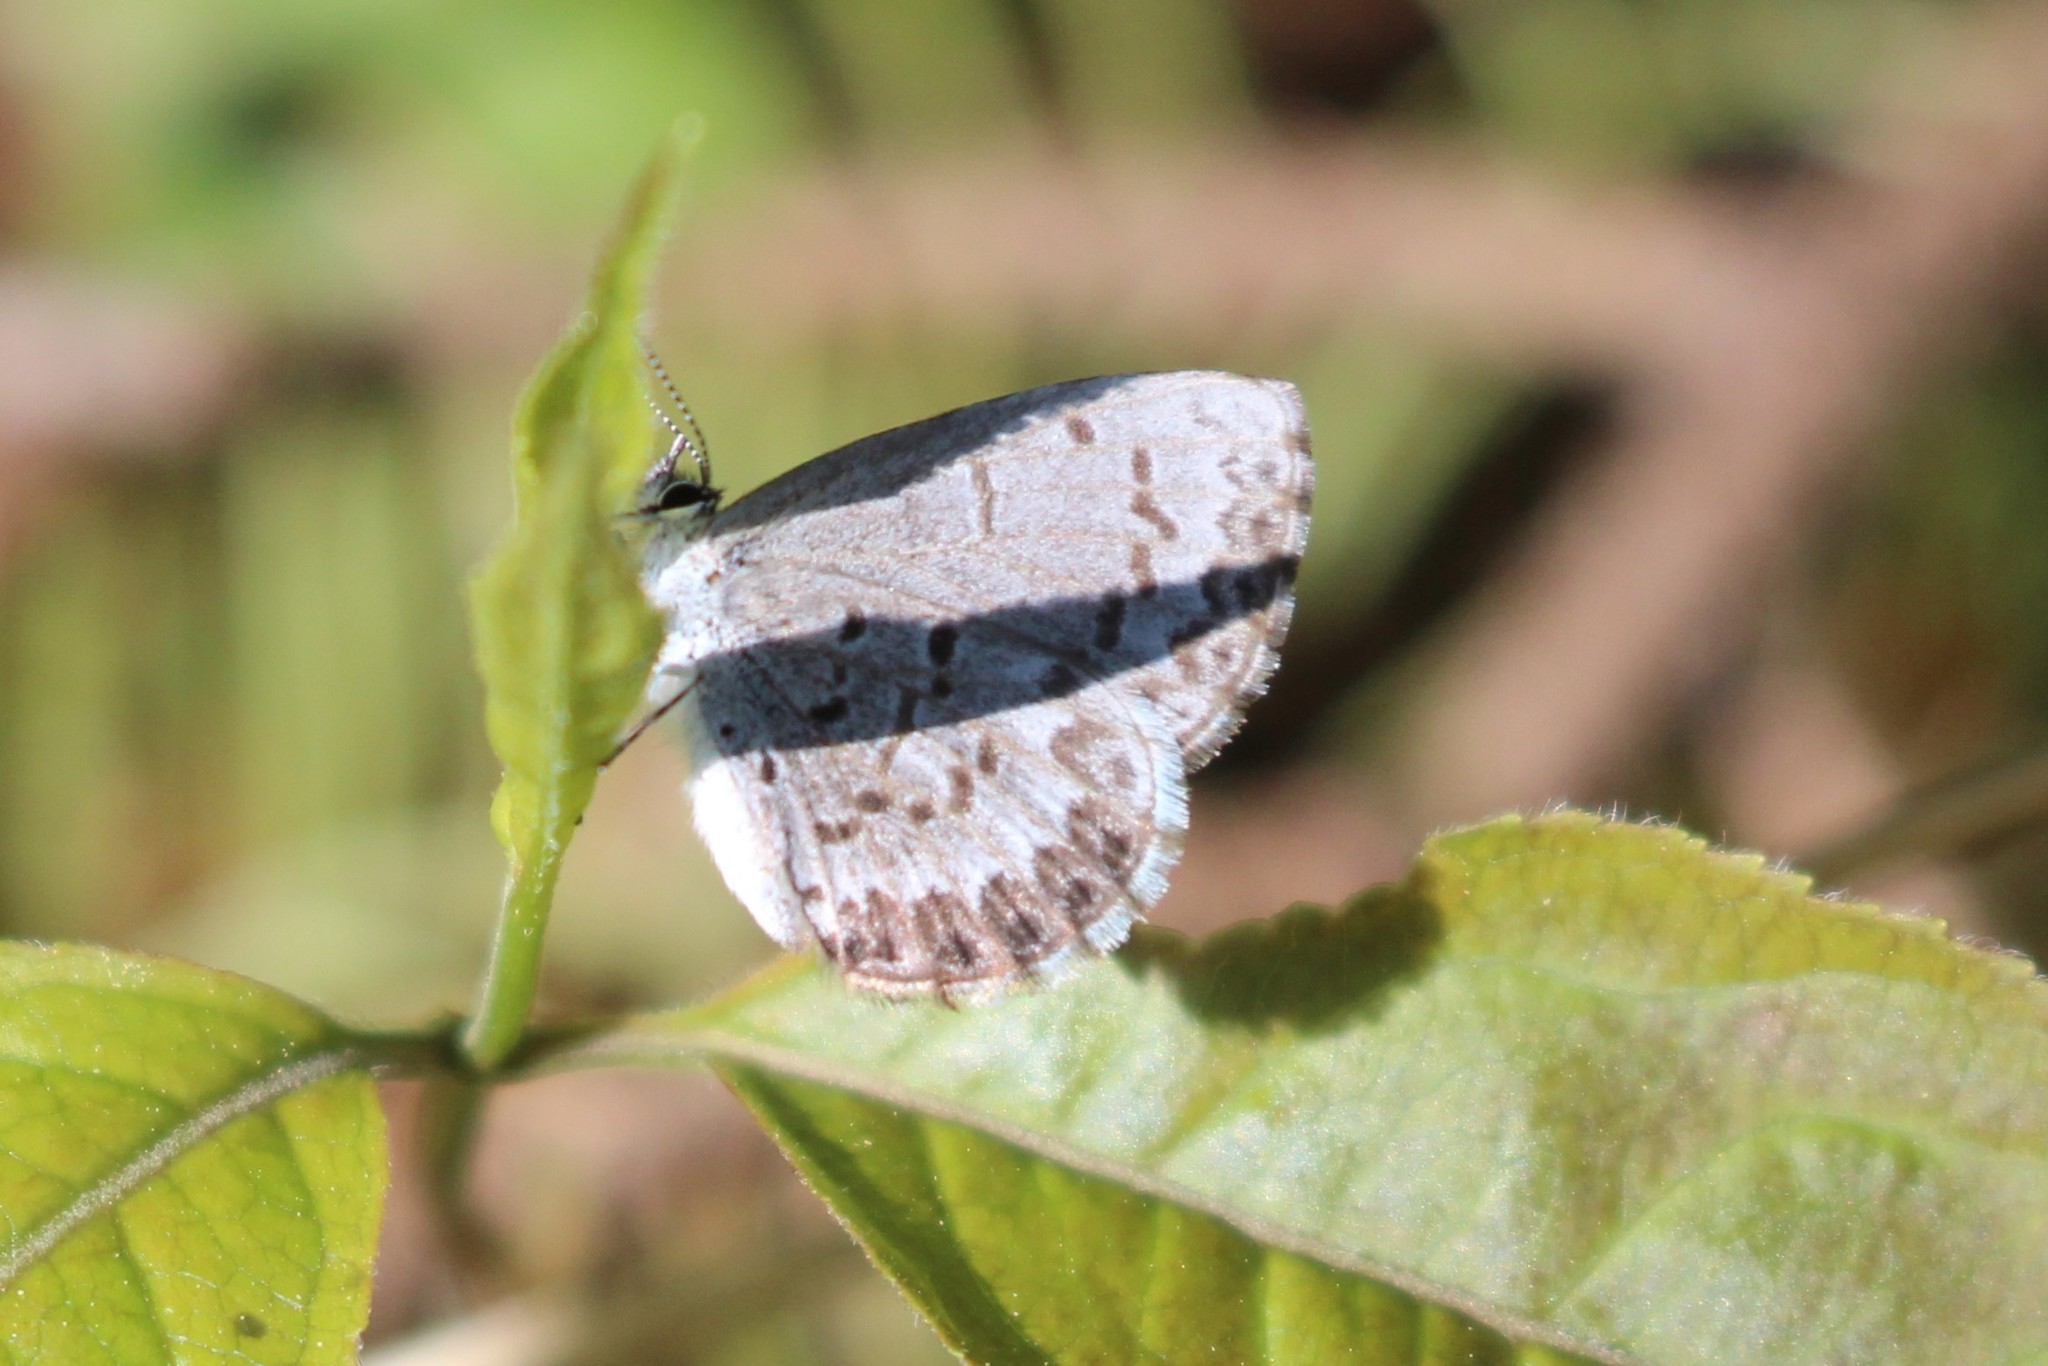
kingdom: Animalia
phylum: Arthropoda
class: Insecta
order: Lepidoptera
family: Lycaenidae
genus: Celastrina
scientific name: Celastrina lucia
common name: Lucia azure
